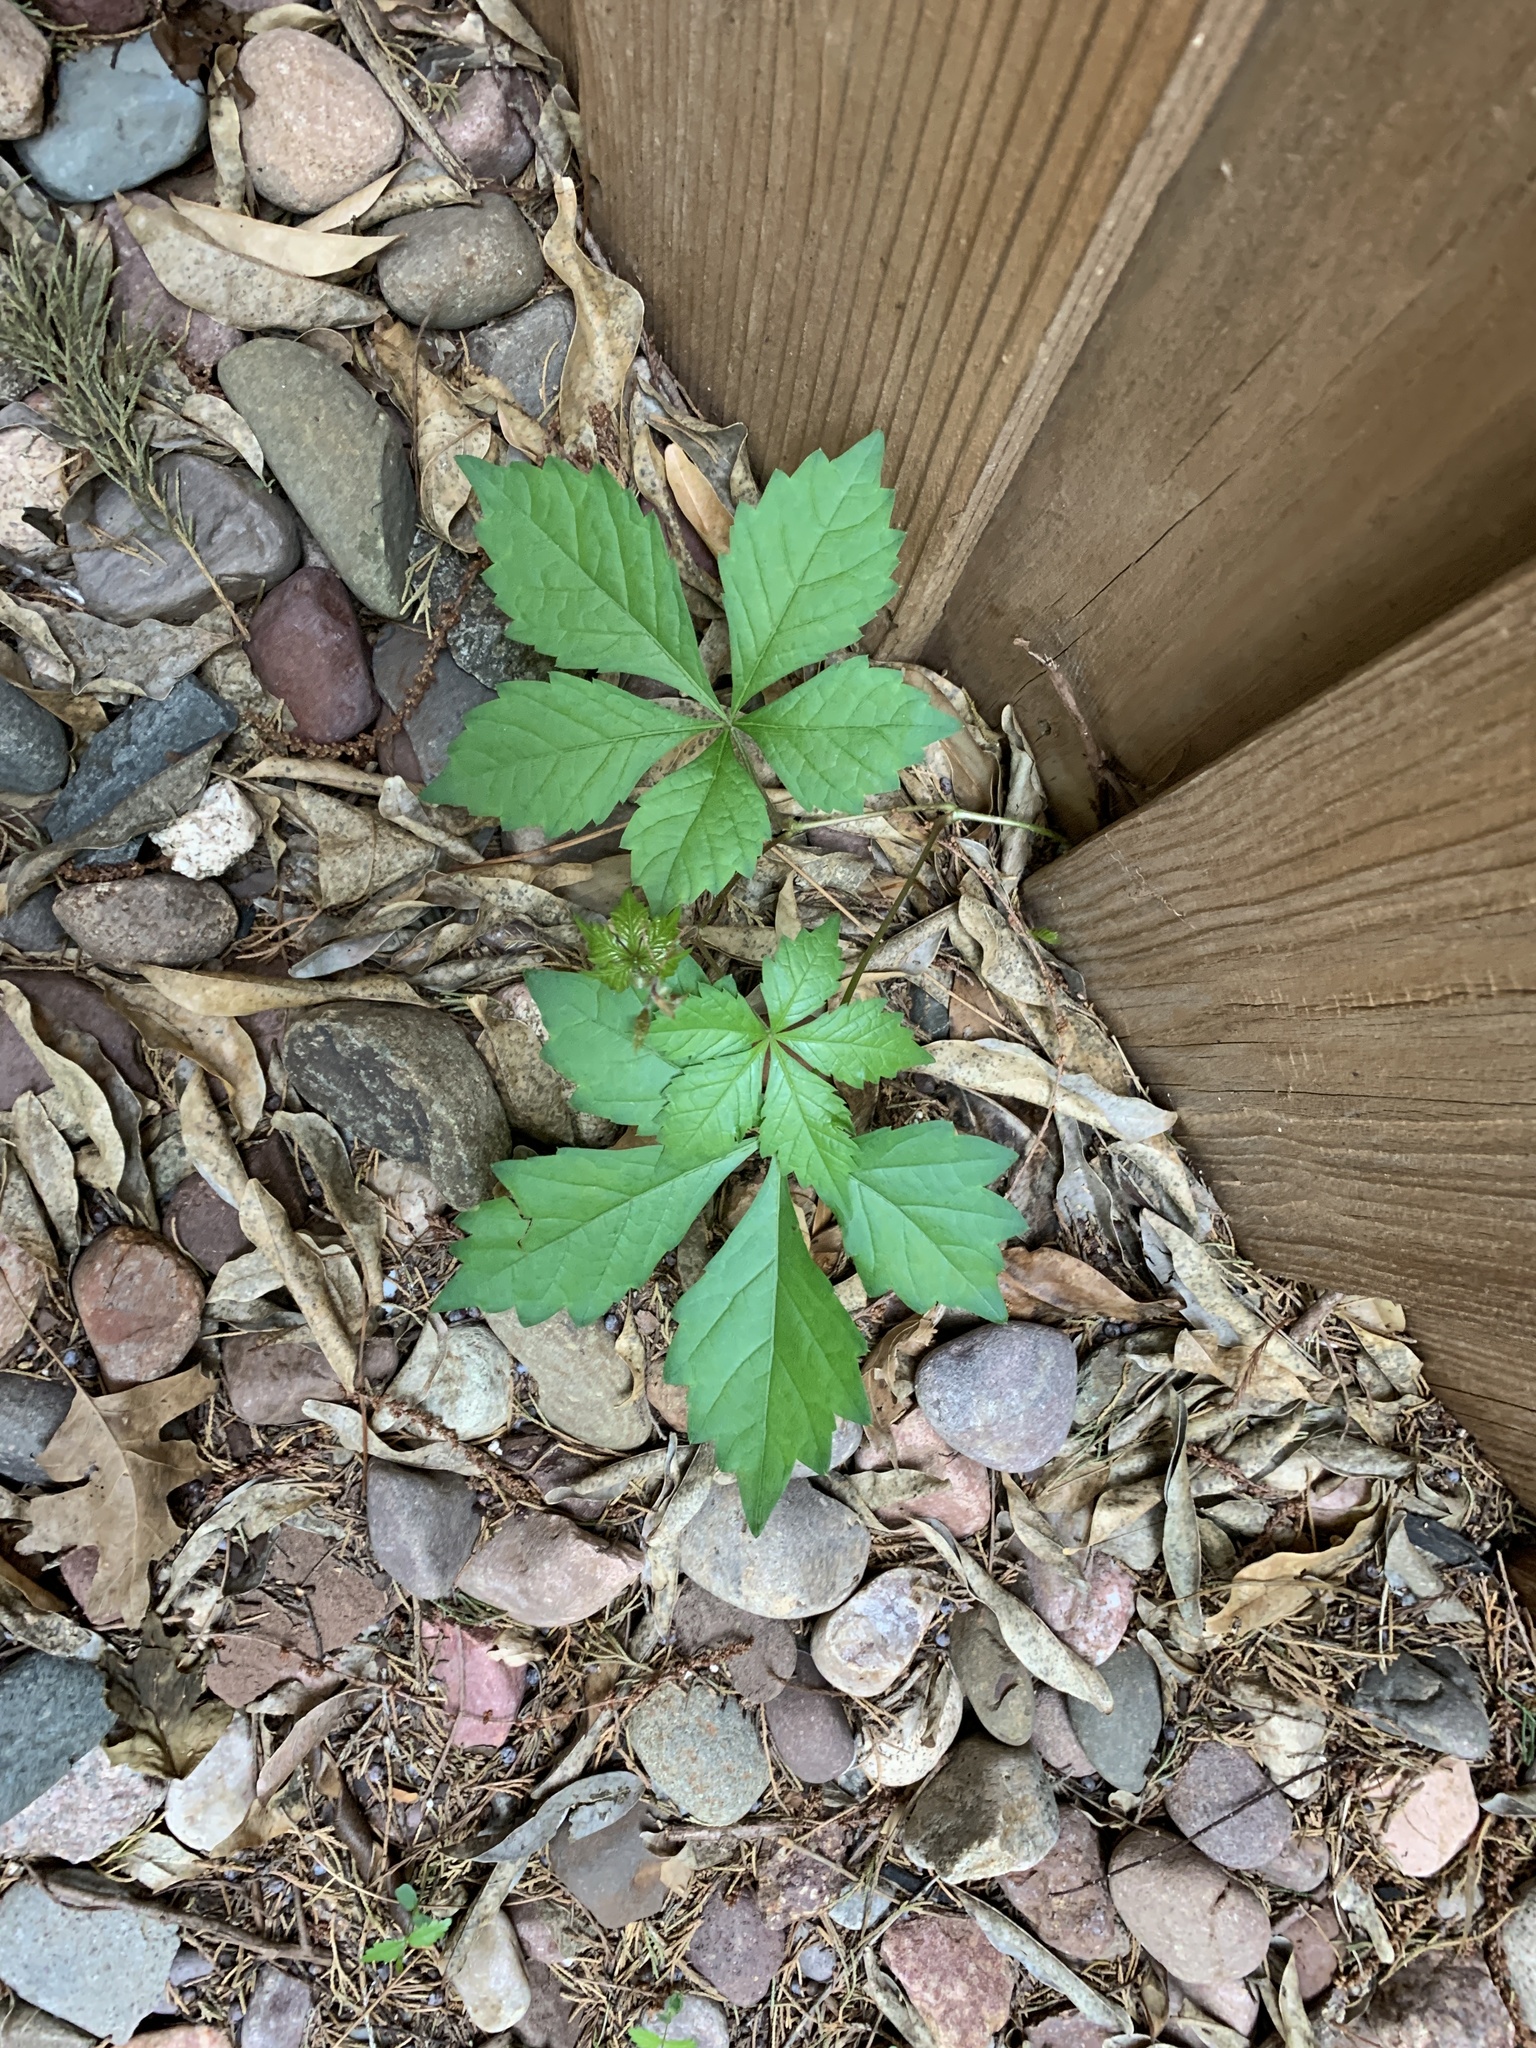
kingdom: Plantae
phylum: Tracheophyta
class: Magnoliopsida
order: Vitales
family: Vitaceae
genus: Parthenocissus
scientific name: Parthenocissus quinquefolia
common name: Virginia-creeper
